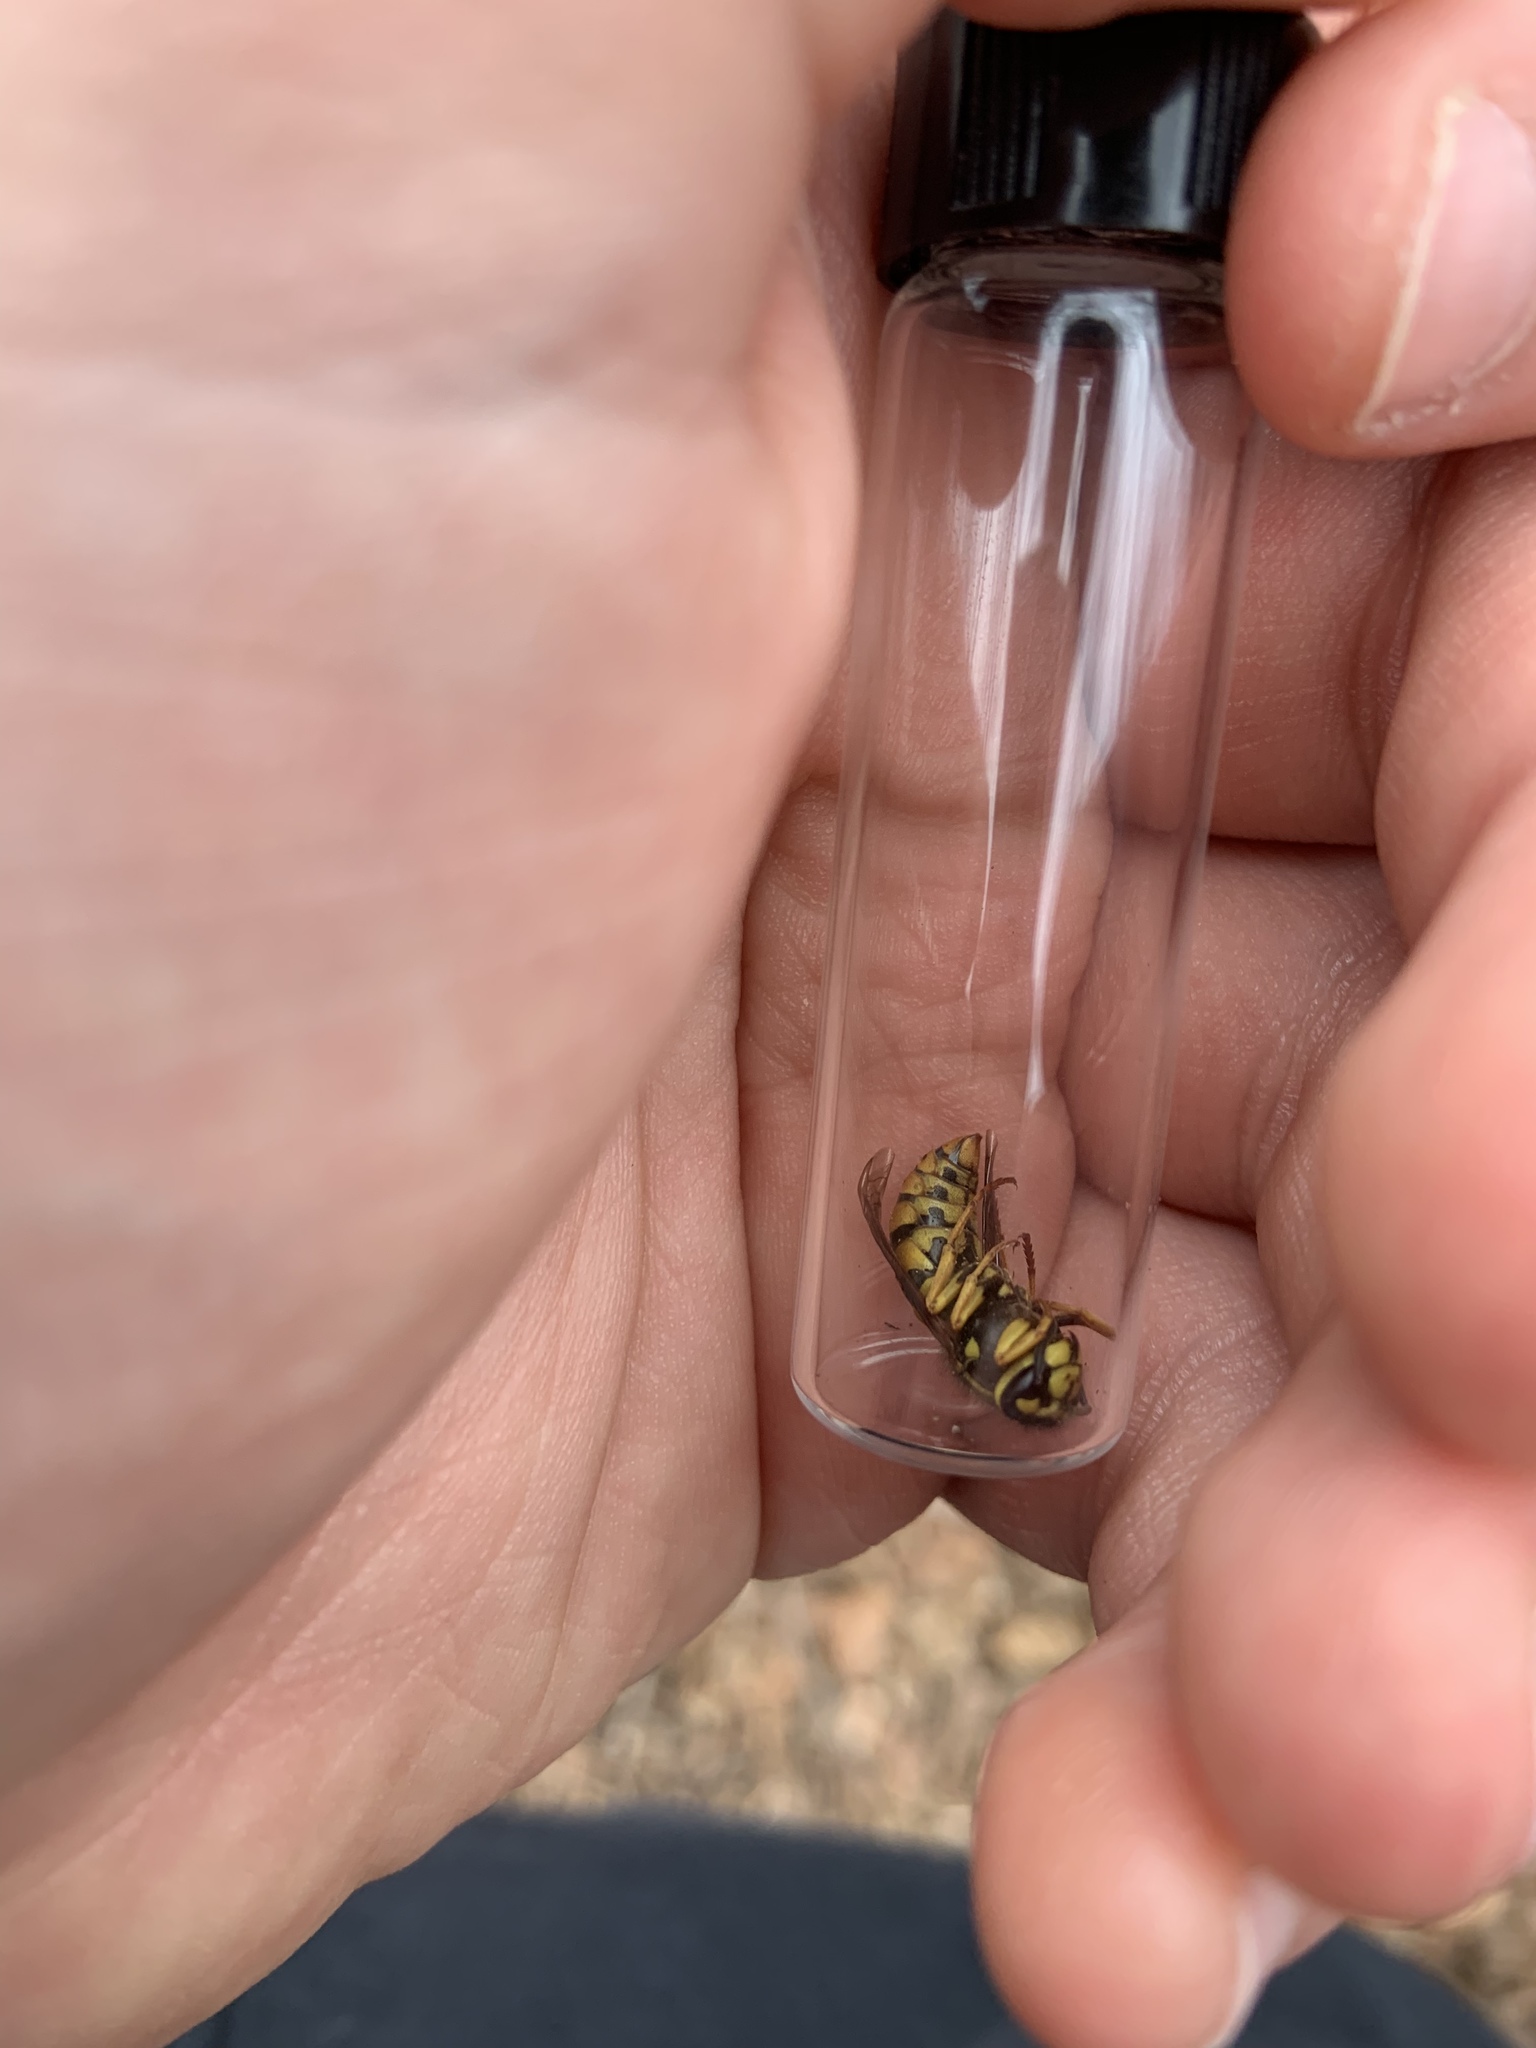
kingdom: Animalia
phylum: Arthropoda
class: Insecta
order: Hymenoptera
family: Vespidae
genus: Vespula
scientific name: Vespula maculifrons
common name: Eastern yellowjacket
